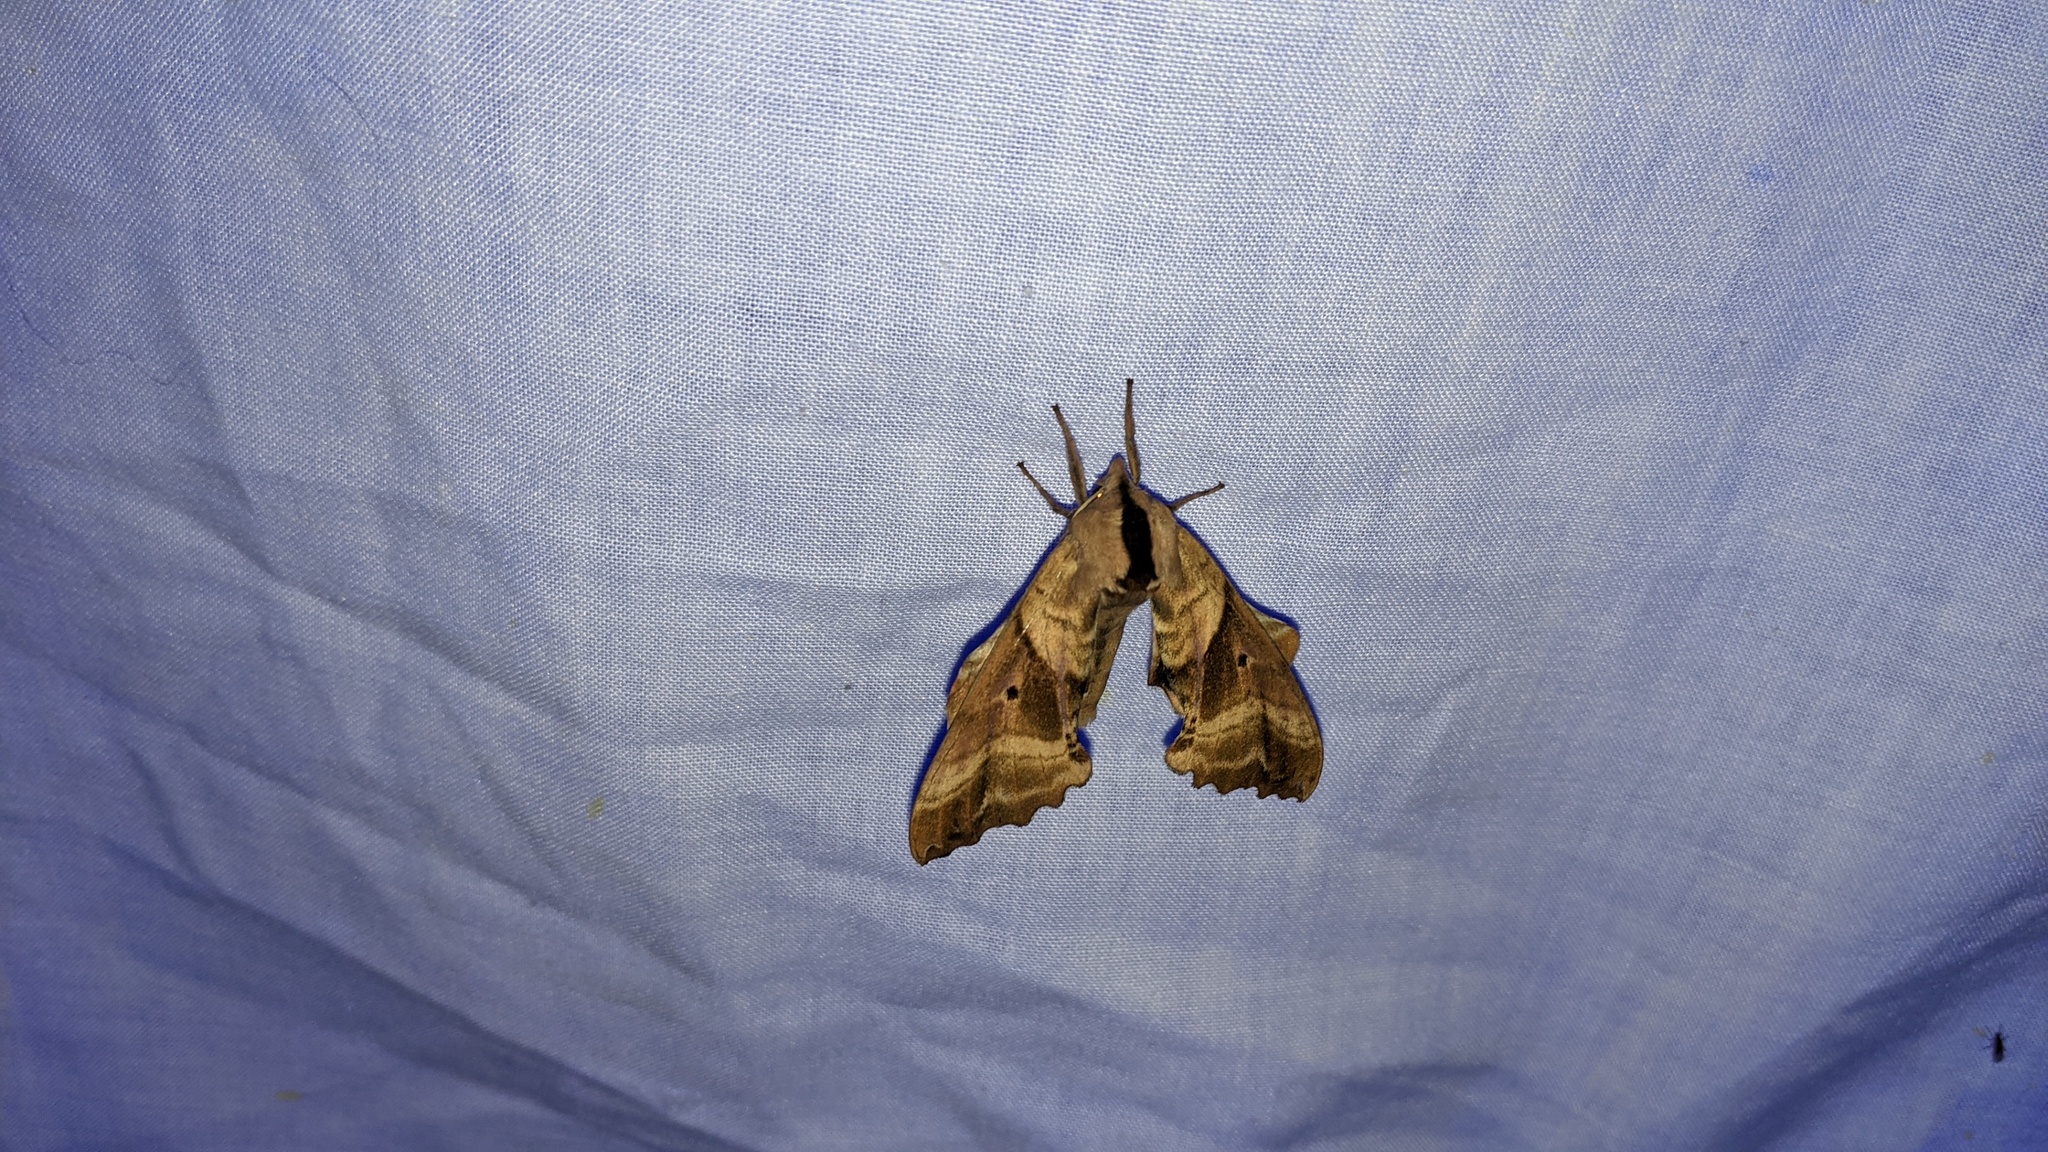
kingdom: Animalia
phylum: Arthropoda
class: Insecta
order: Lepidoptera
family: Sphingidae
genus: Paonias
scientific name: Paonias excaecata
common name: Blind-eyed sphinx
